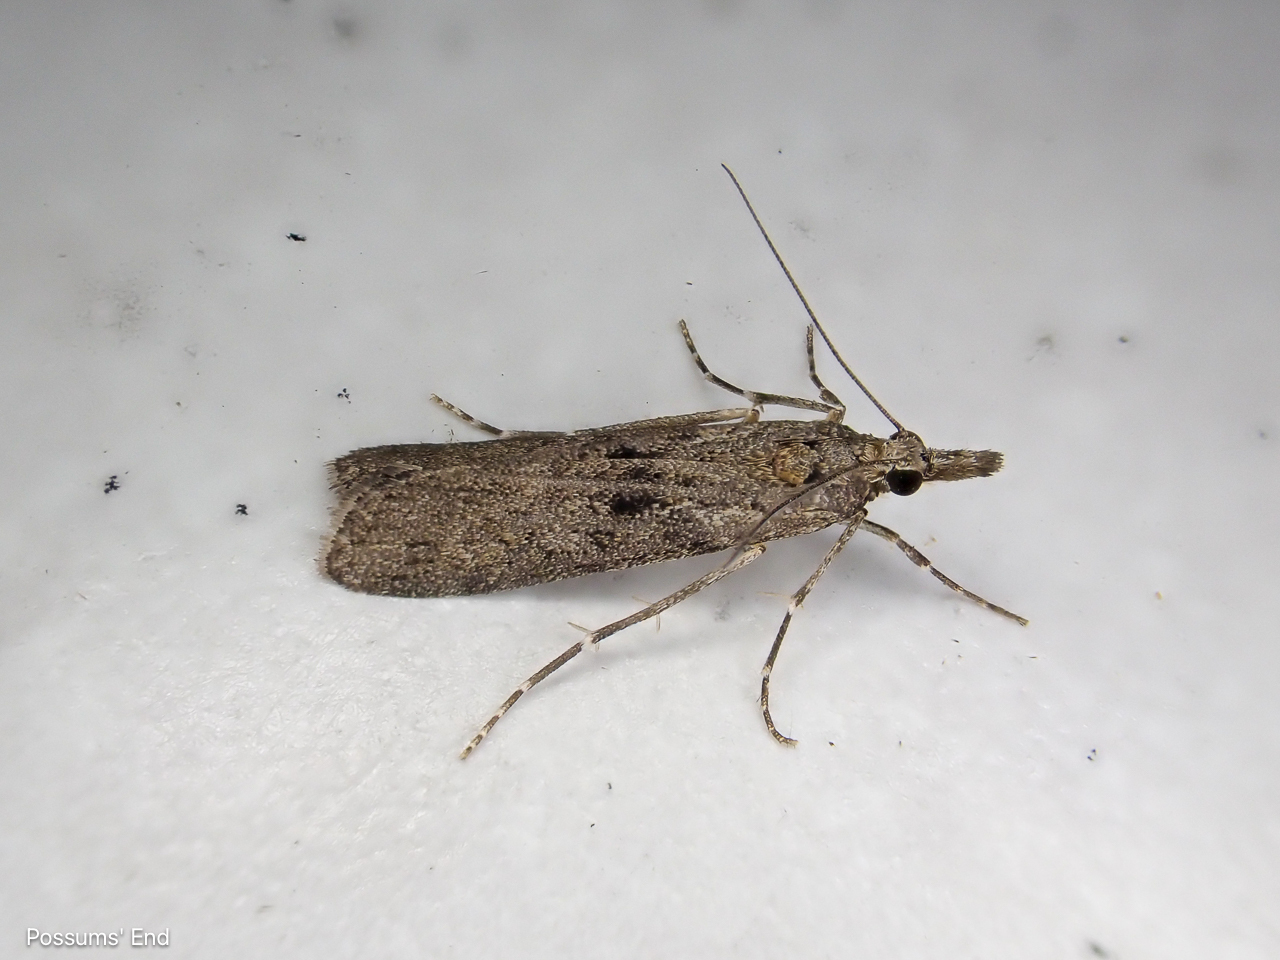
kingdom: Animalia
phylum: Arthropoda
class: Insecta
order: Lepidoptera
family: Crambidae
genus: Eudonia
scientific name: Eudonia leptalea
